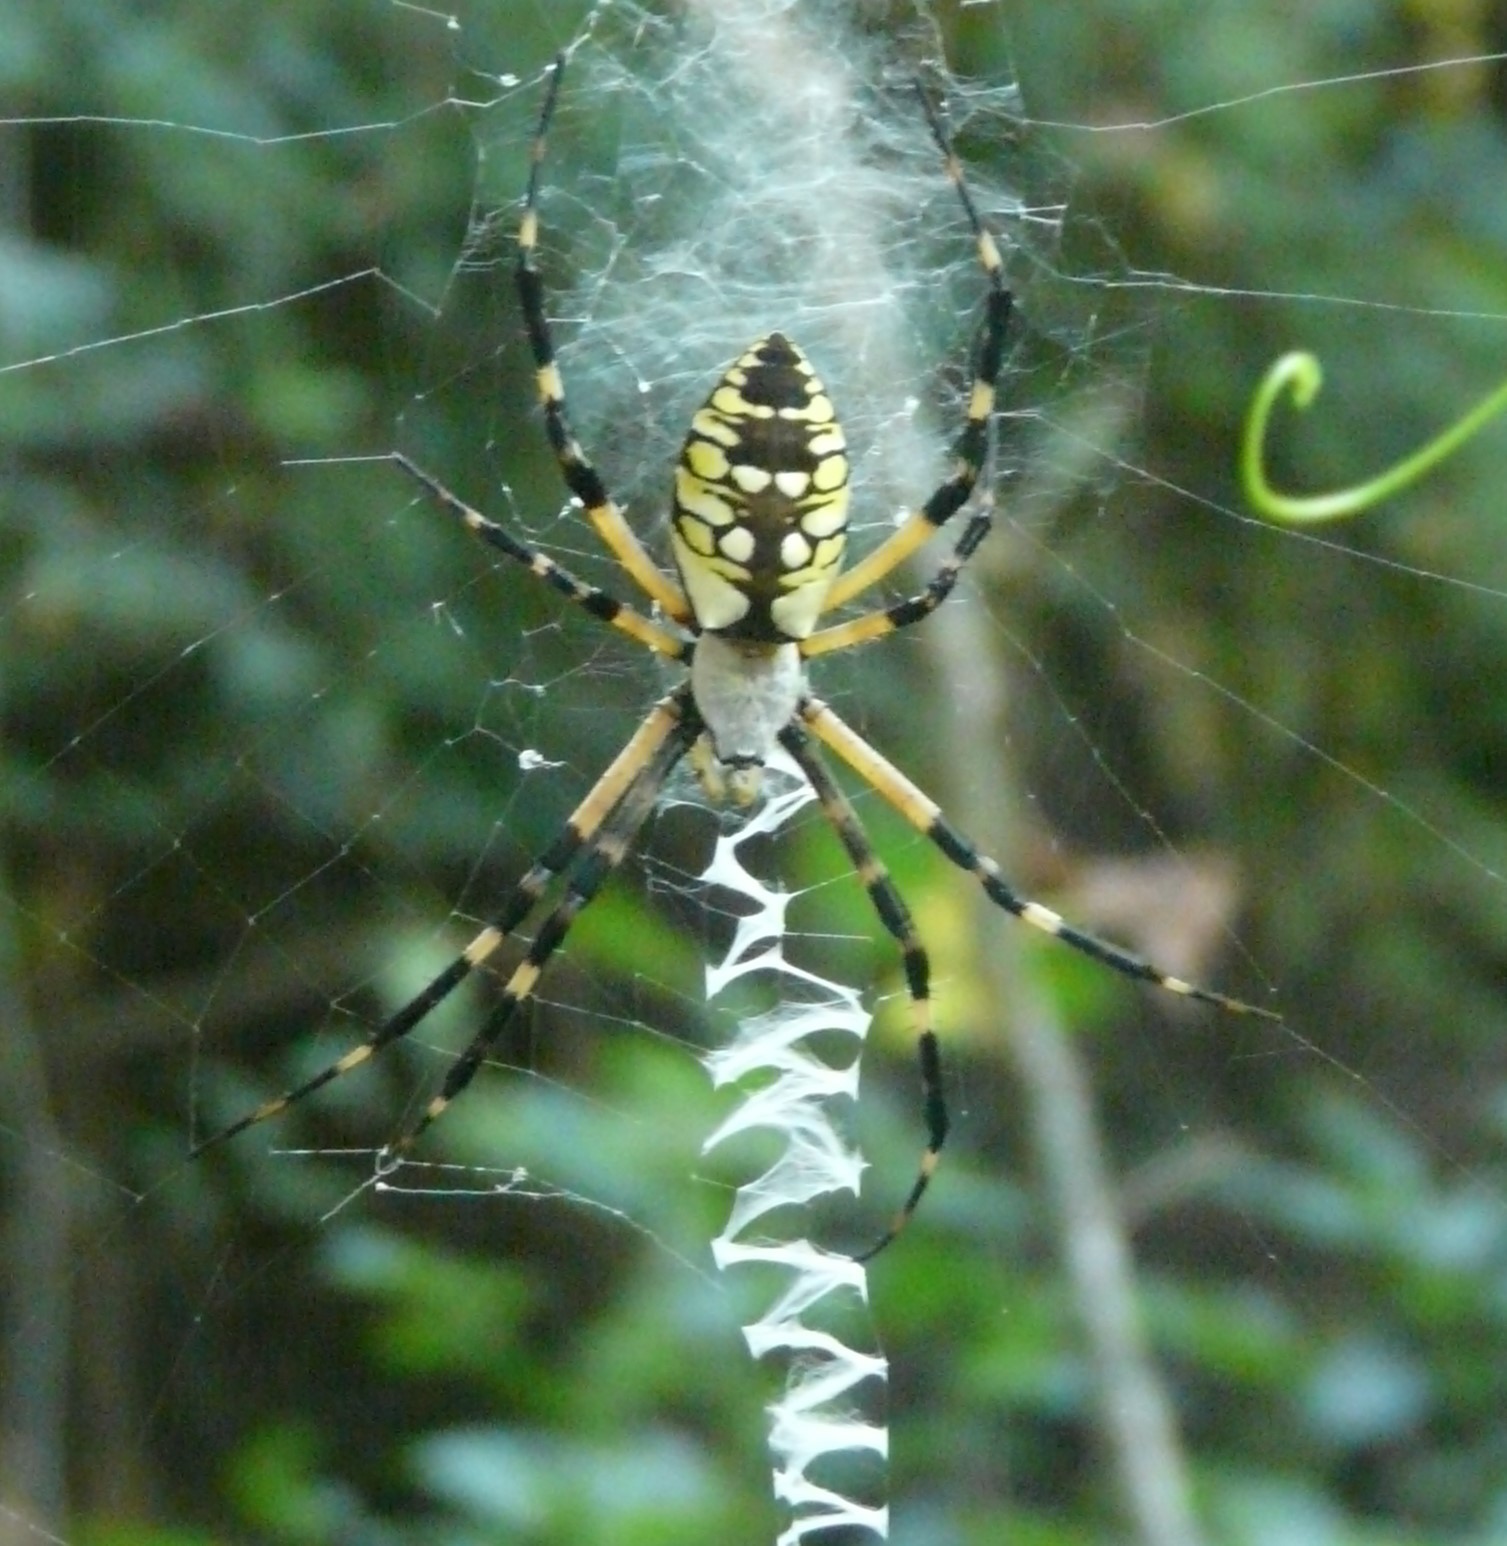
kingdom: Animalia
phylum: Arthropoda
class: Arachnida
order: Araneae
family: Araneidae
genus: Argiope
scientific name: Argiope aurantia
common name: Orb weavers
